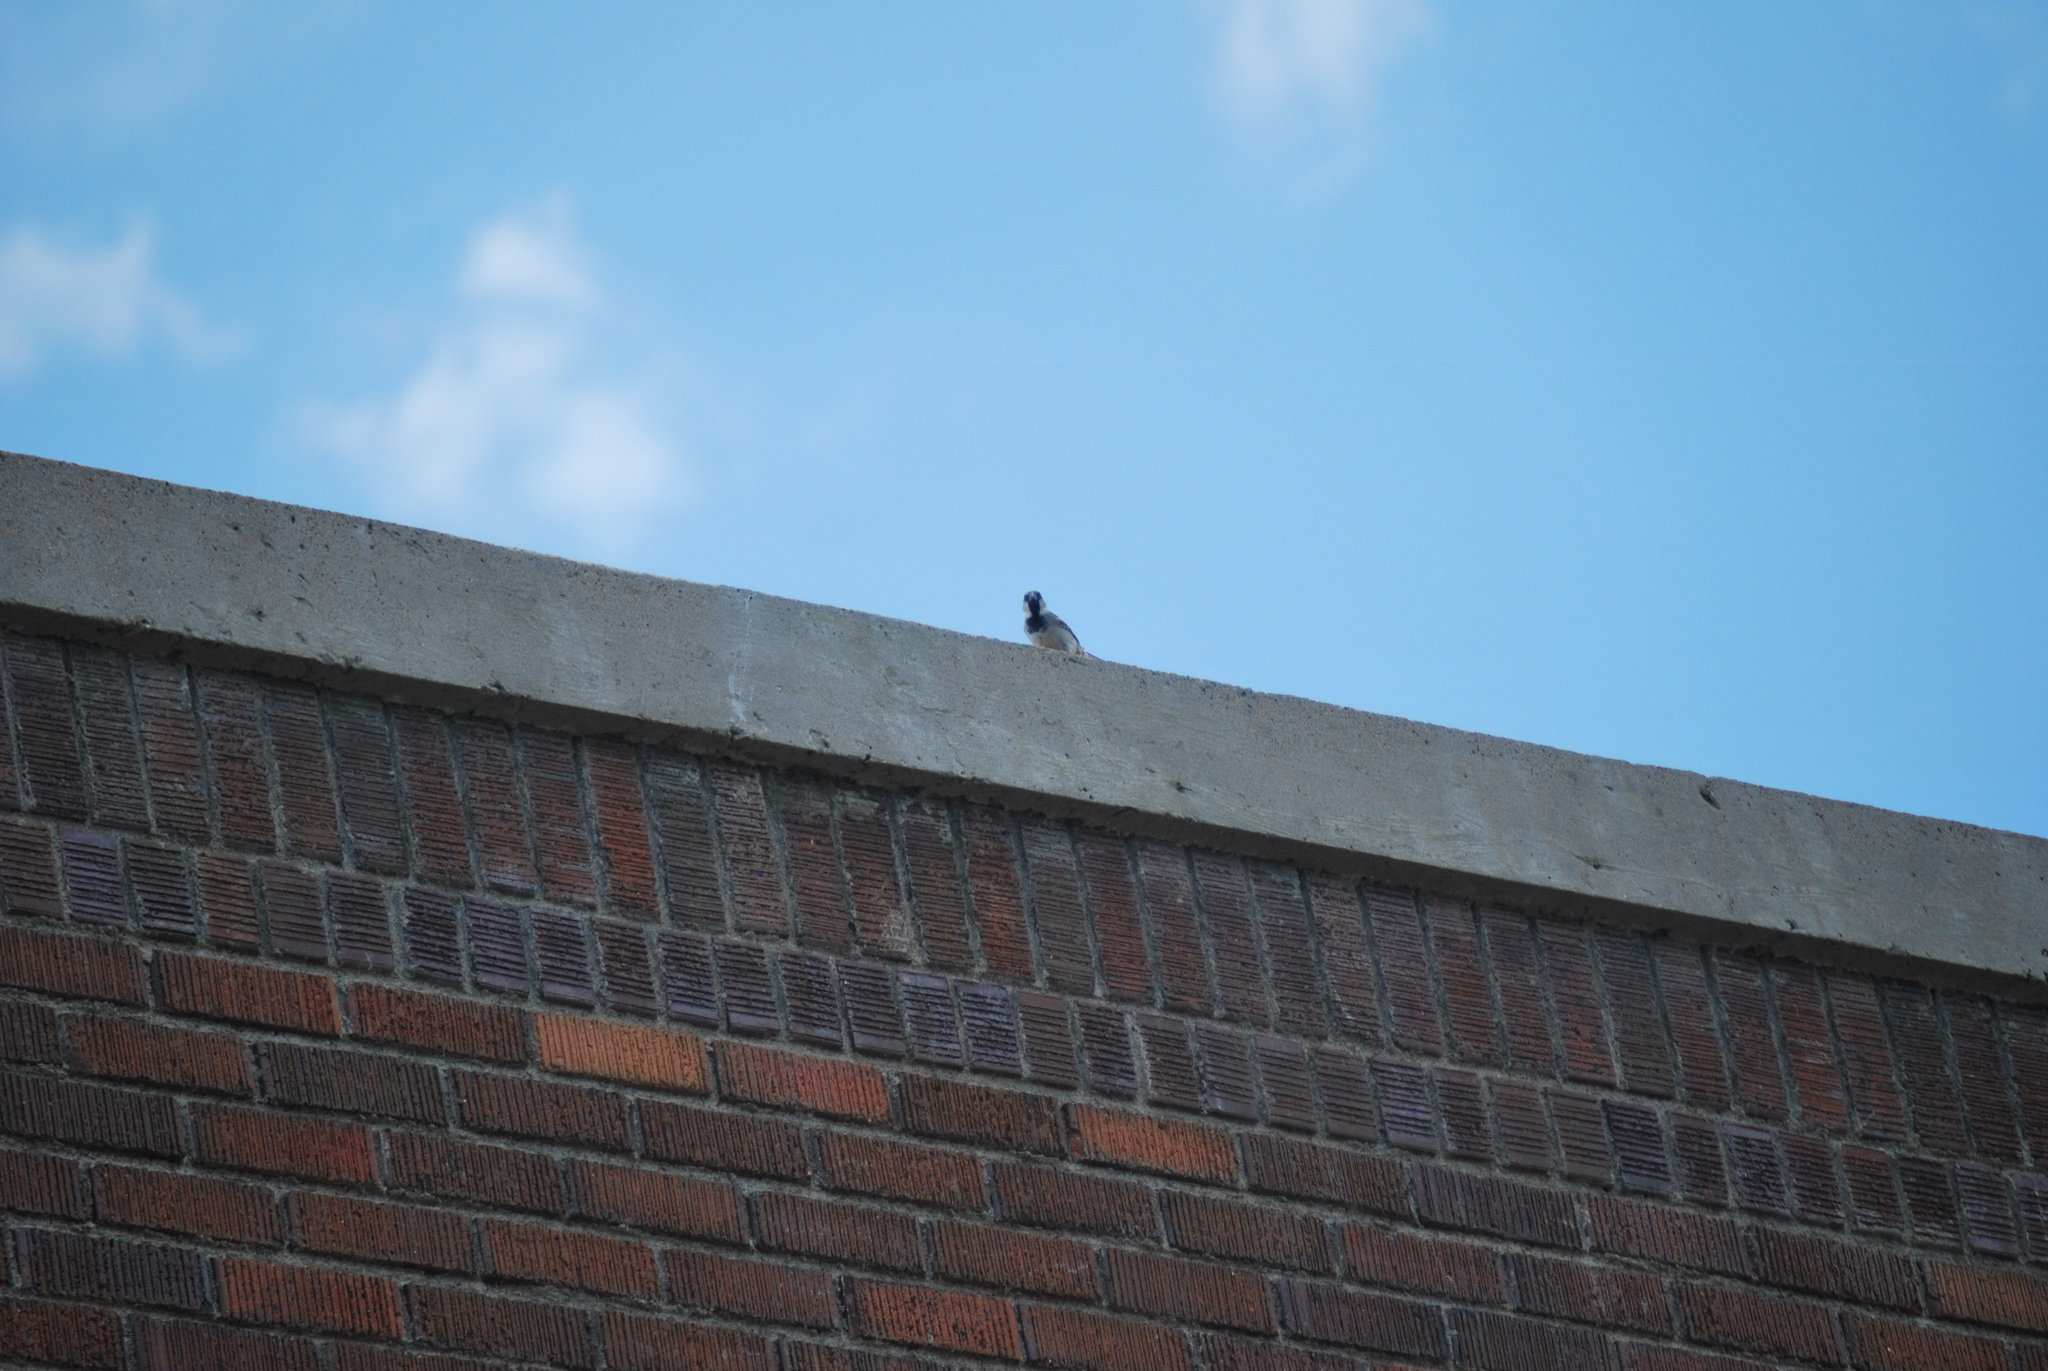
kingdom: Animalia
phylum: Chordata
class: Aves
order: Passeriformes
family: Passeridae
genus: Passer
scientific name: Passer domesticus
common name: House sparrow
